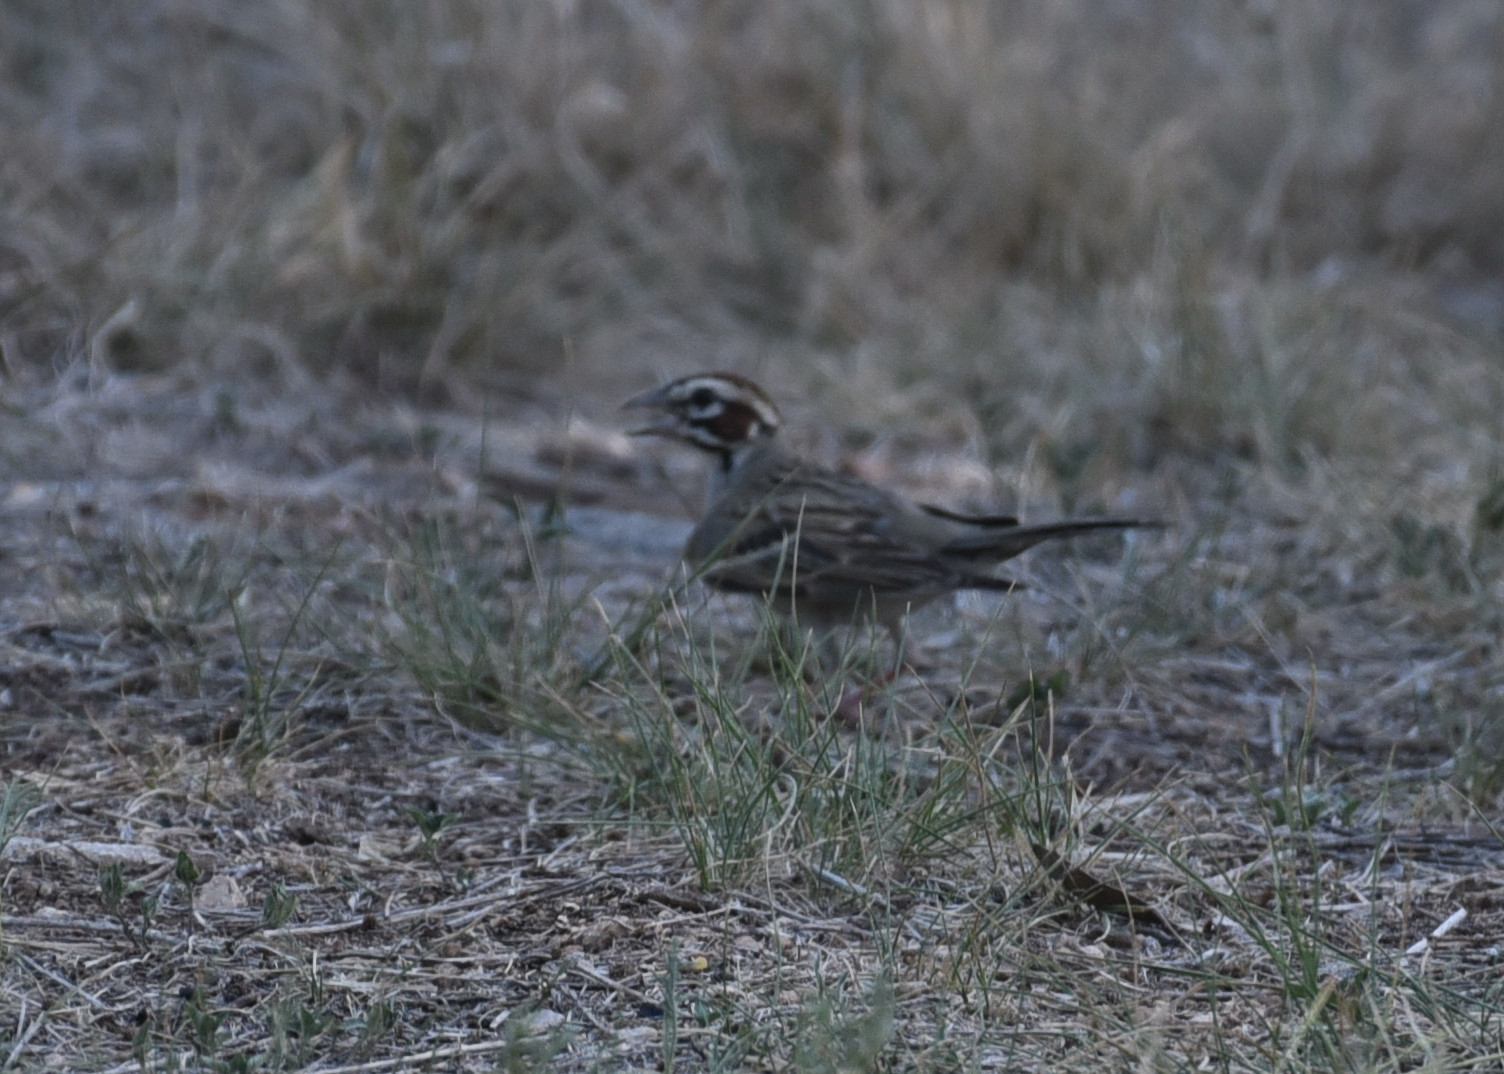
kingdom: Animalia
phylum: Chordata
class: Aves
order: Passeriformes
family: Passerellidae
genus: Chondestes
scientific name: Chondestes grammacus
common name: Lark sparrow
